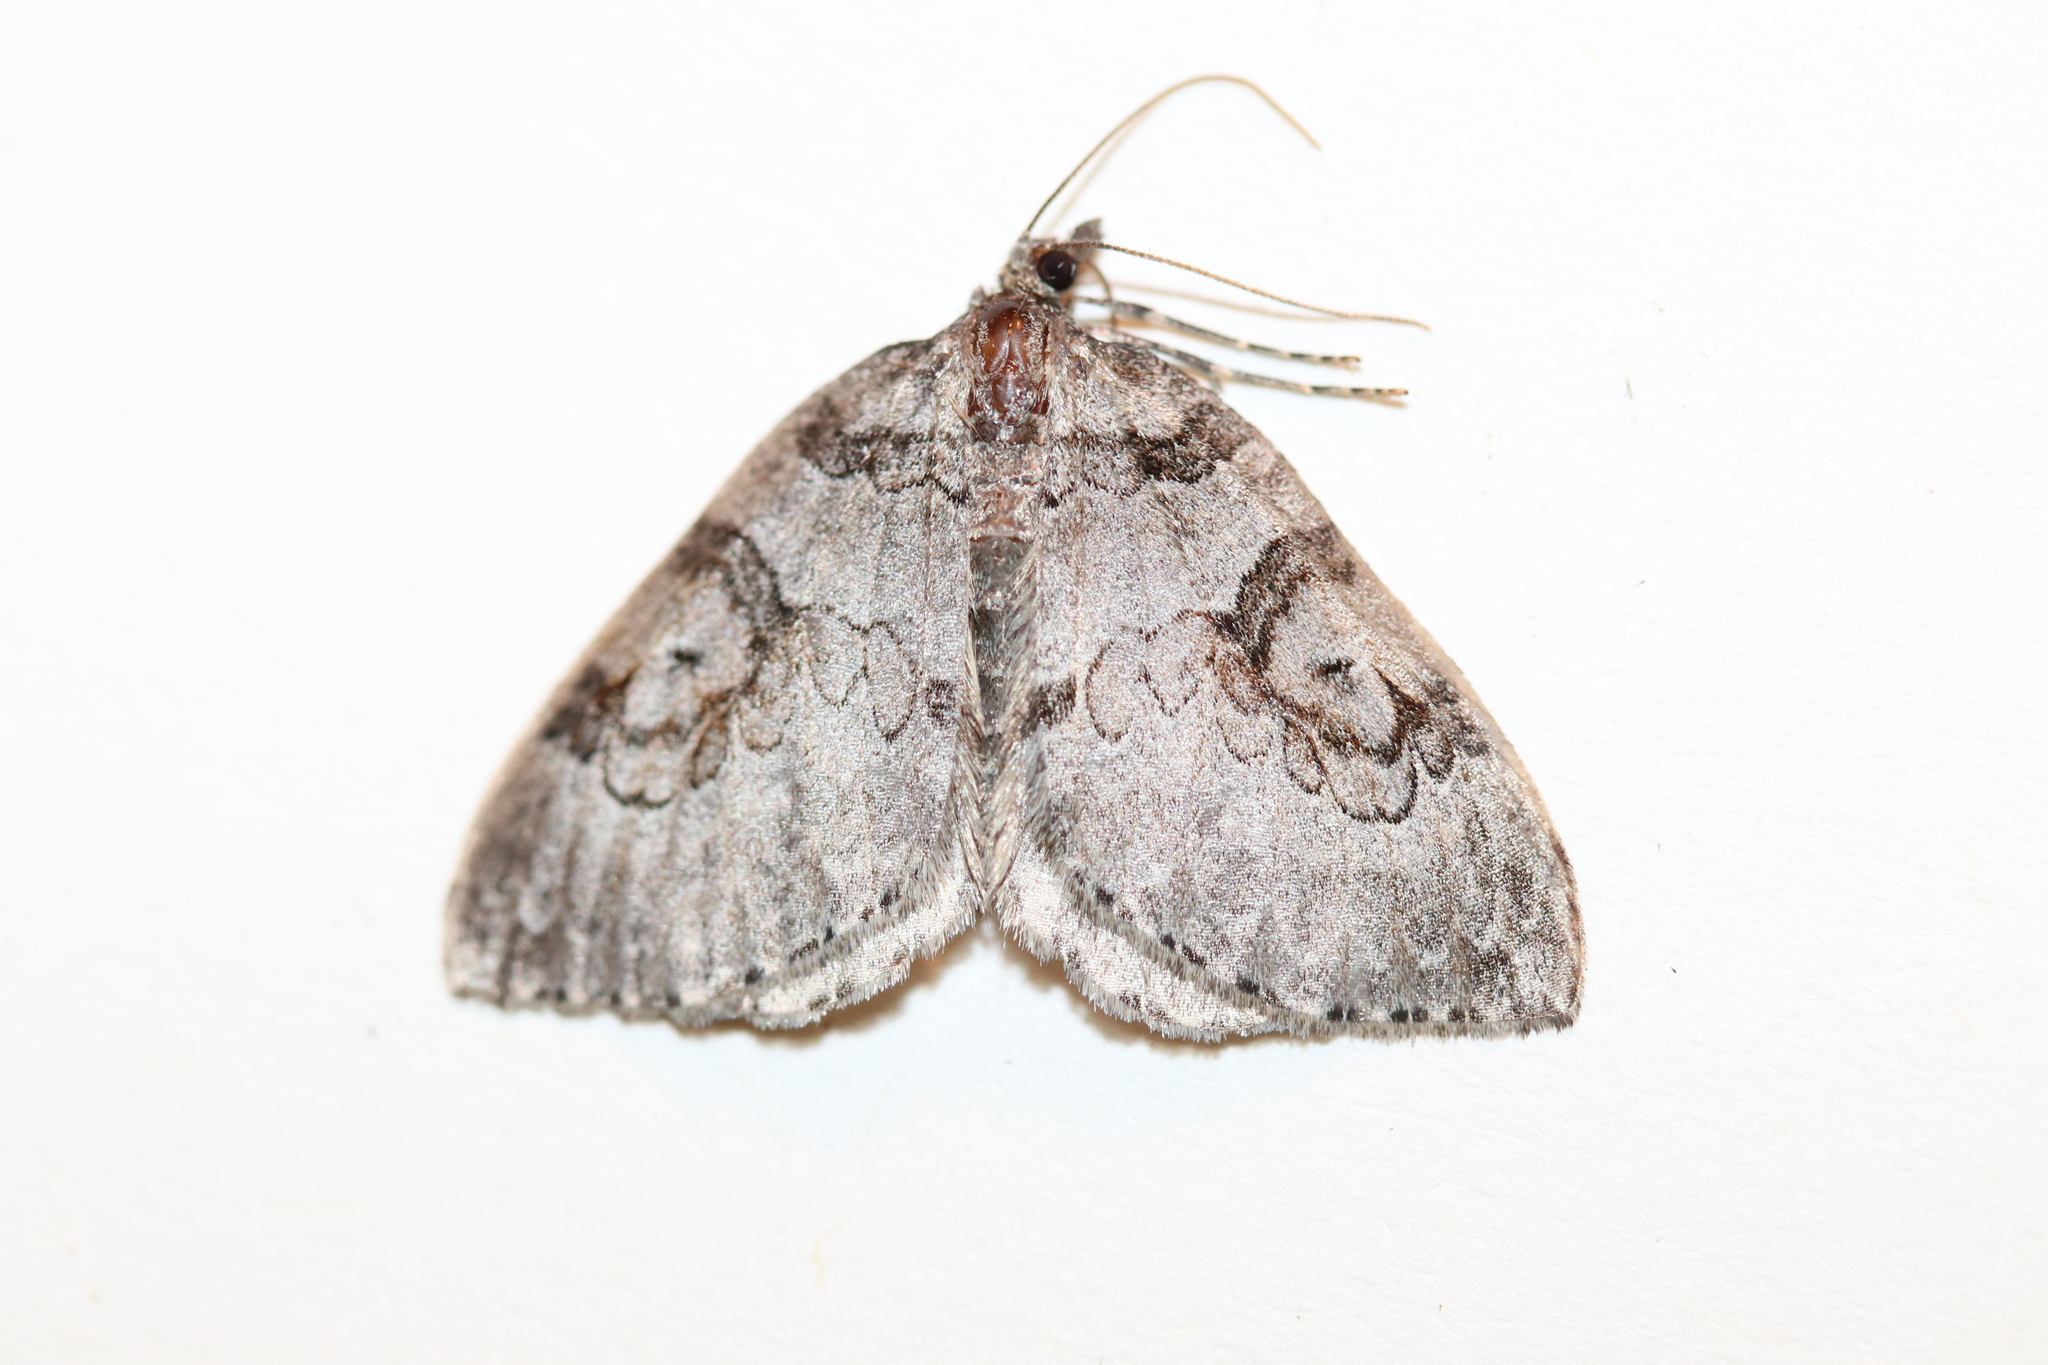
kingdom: Animalia
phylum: Arthropoda
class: Insecta
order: Lepidoptera
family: Geometridae
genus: Plemyria
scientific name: Plemyria georgii
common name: George's carpet moth
